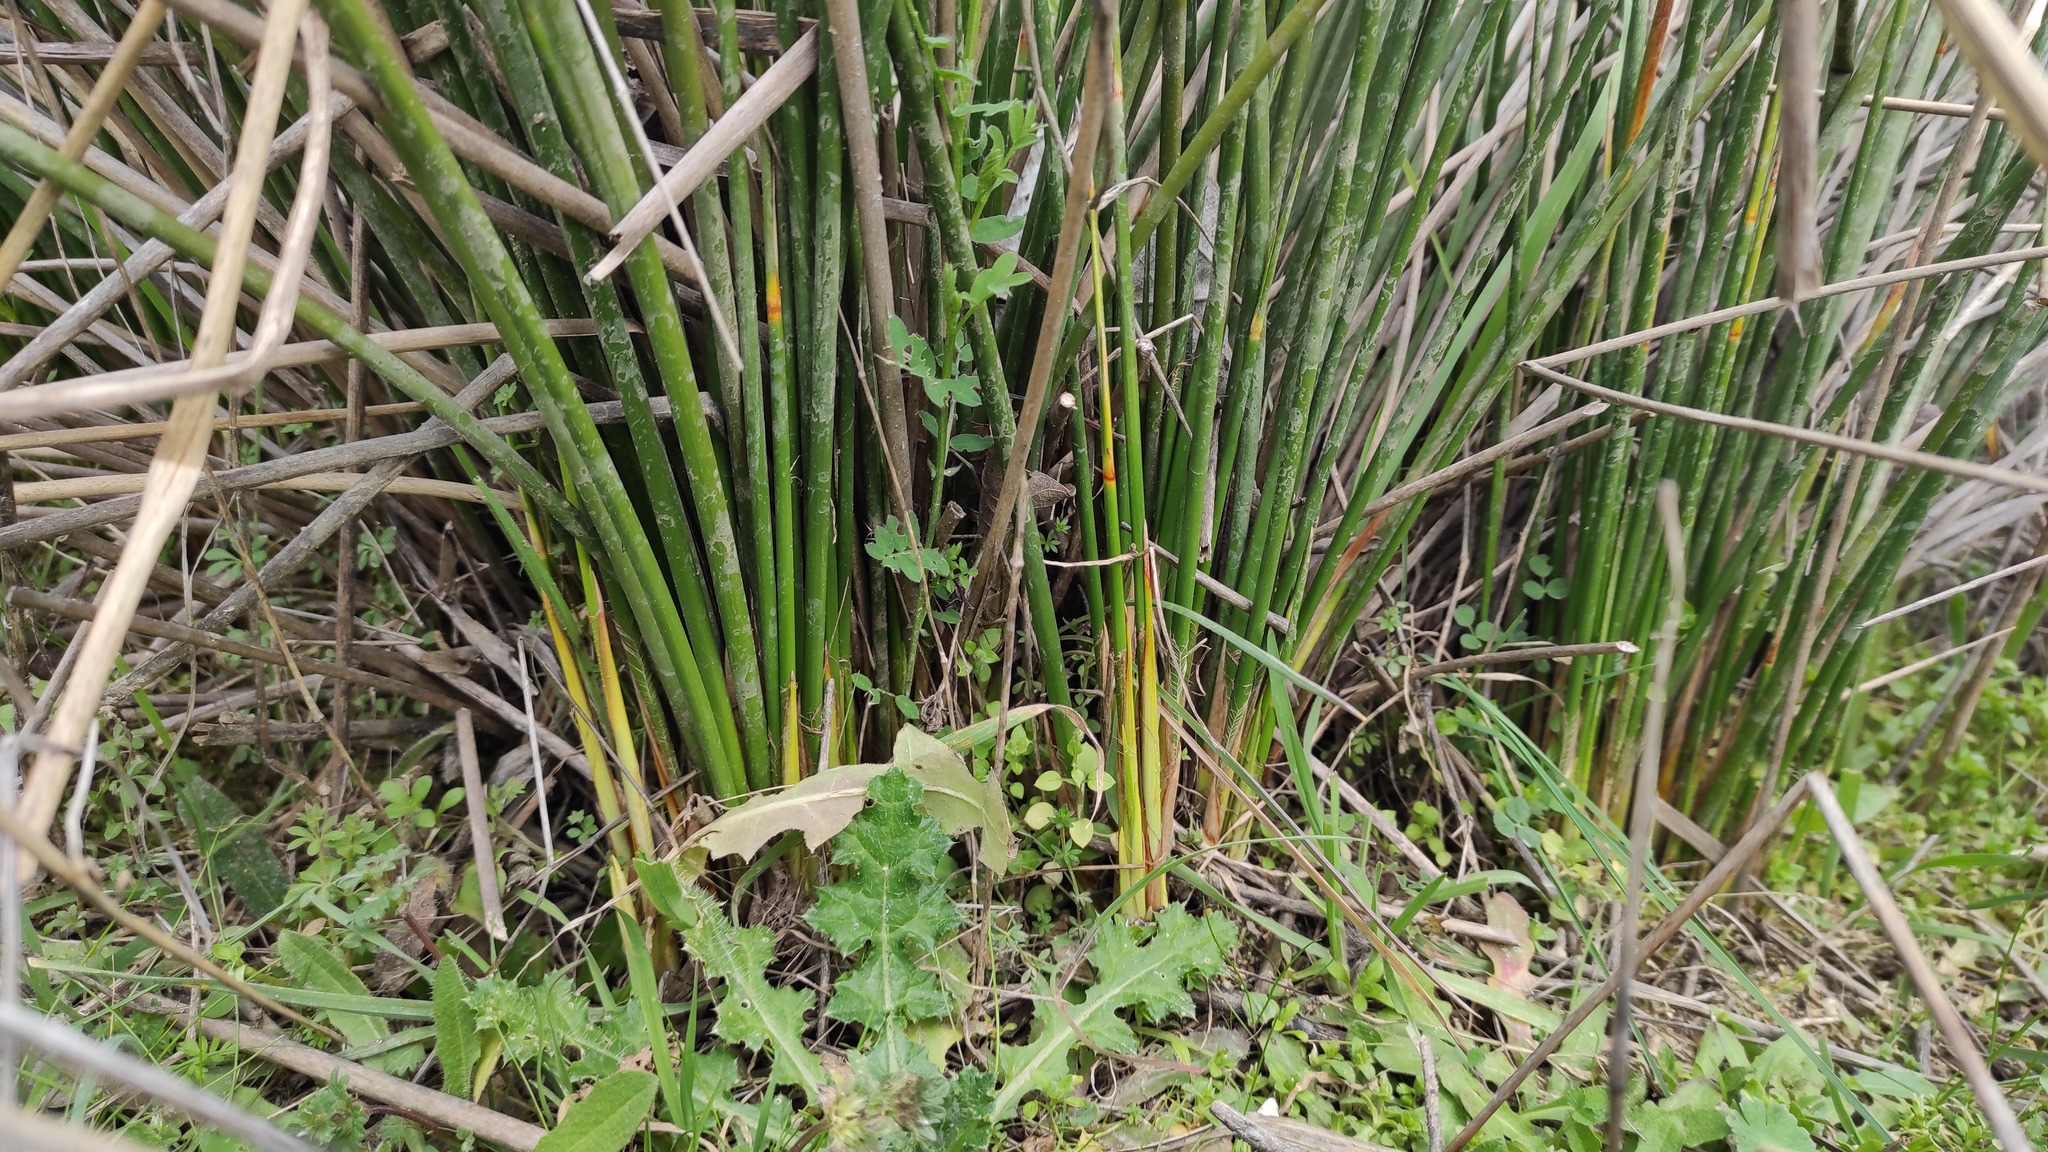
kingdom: Plantae
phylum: Tracheophyta
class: Liliopsida
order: Poales
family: Cyperaceae
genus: Scirpoides
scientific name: Scirpoides holoschoenus
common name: Round-headed club-rush
